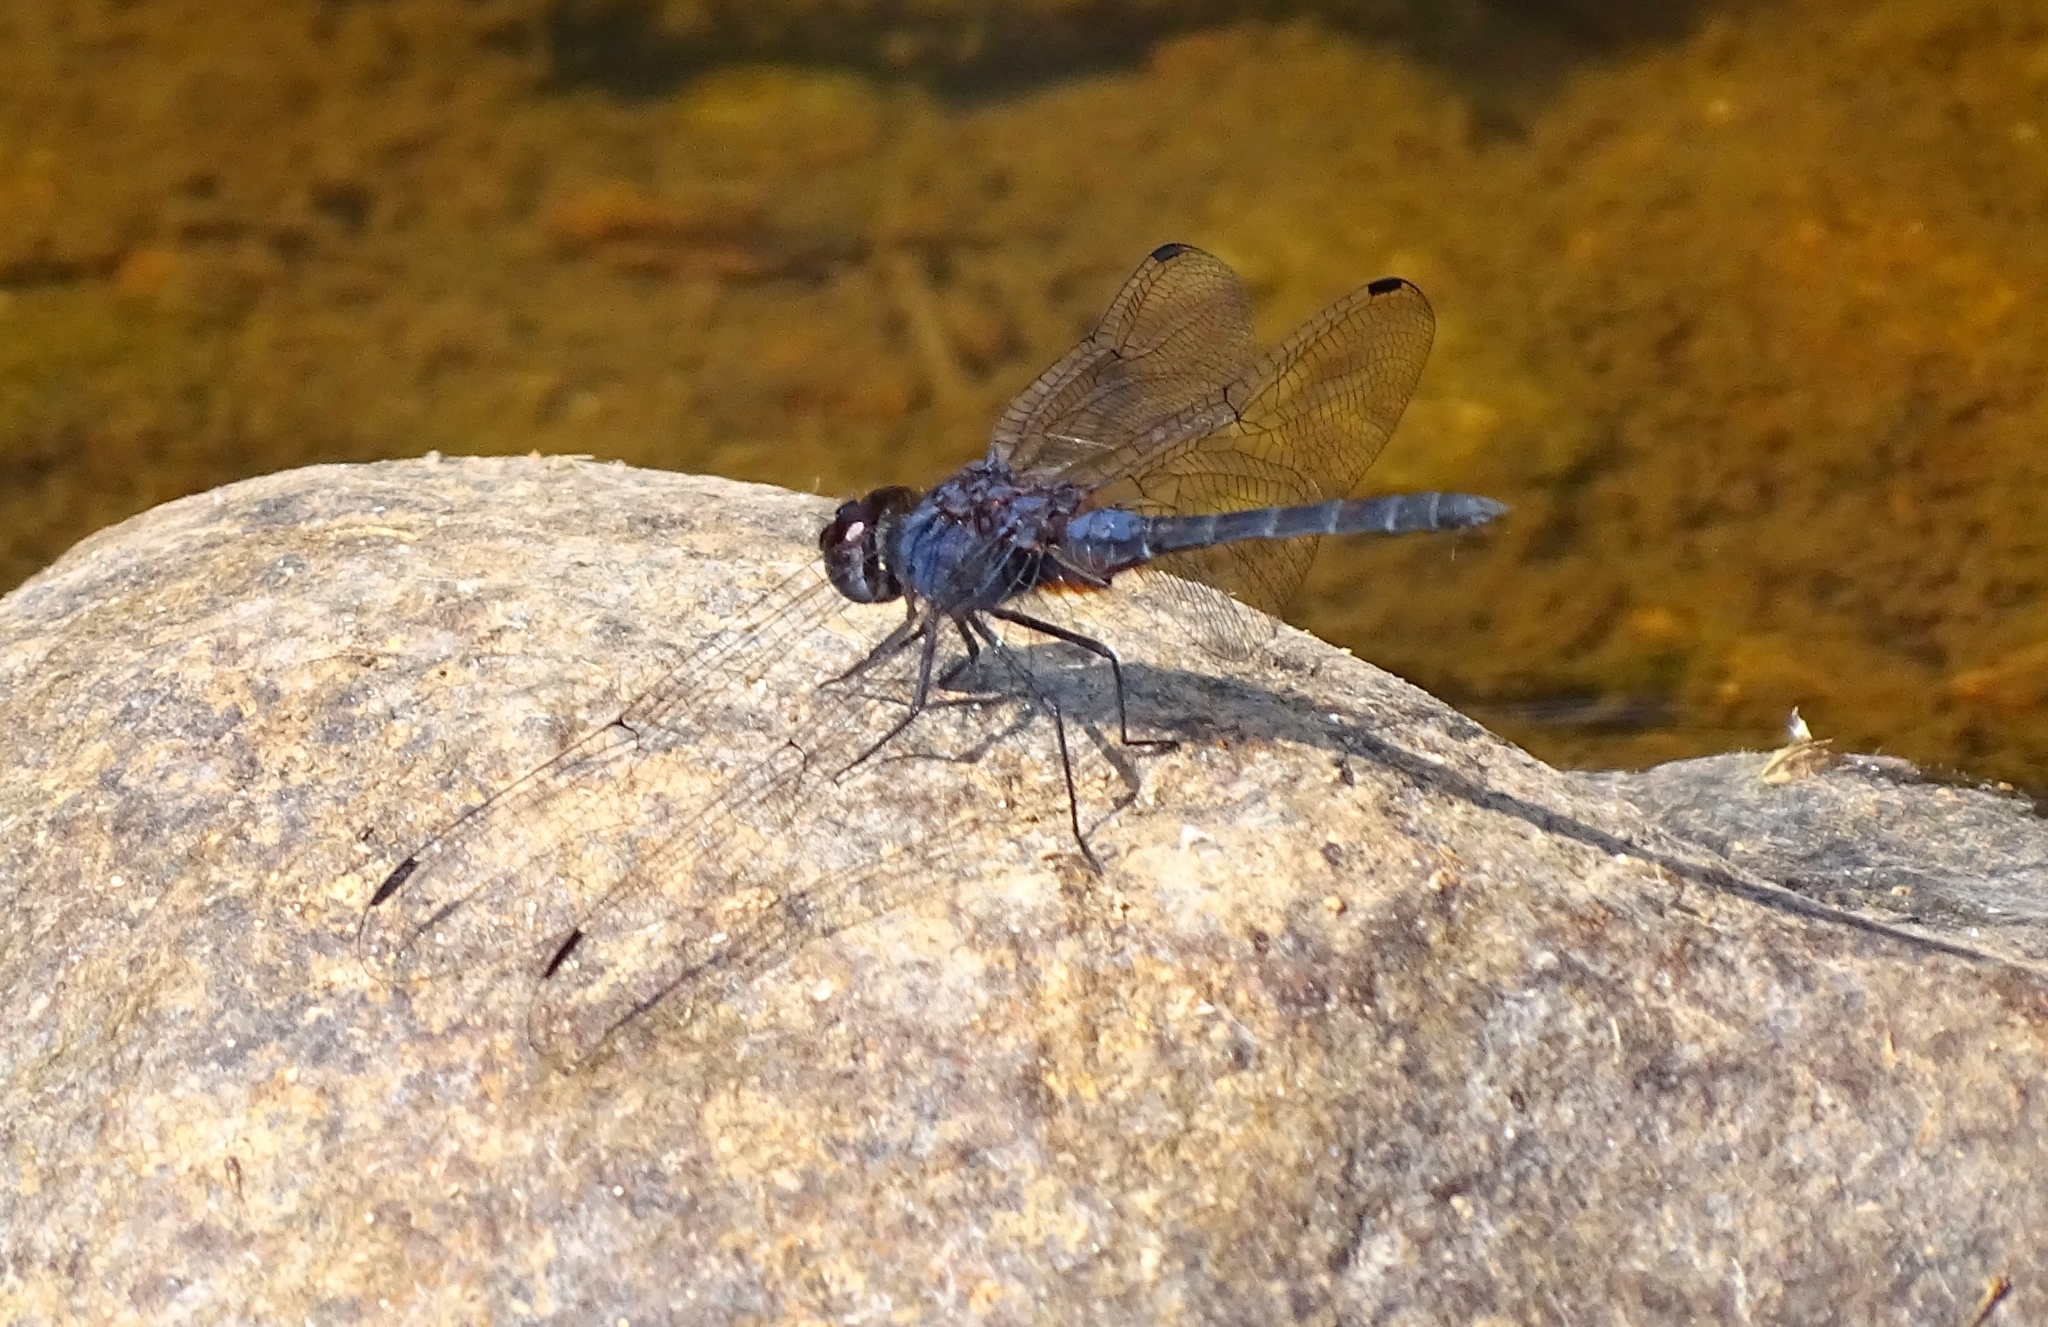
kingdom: Animalia
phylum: Arthropoda
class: Insecta
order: Odonata
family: Libellulidae
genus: Trithemis
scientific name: Trithemis festiva
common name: Indigo dropwing
